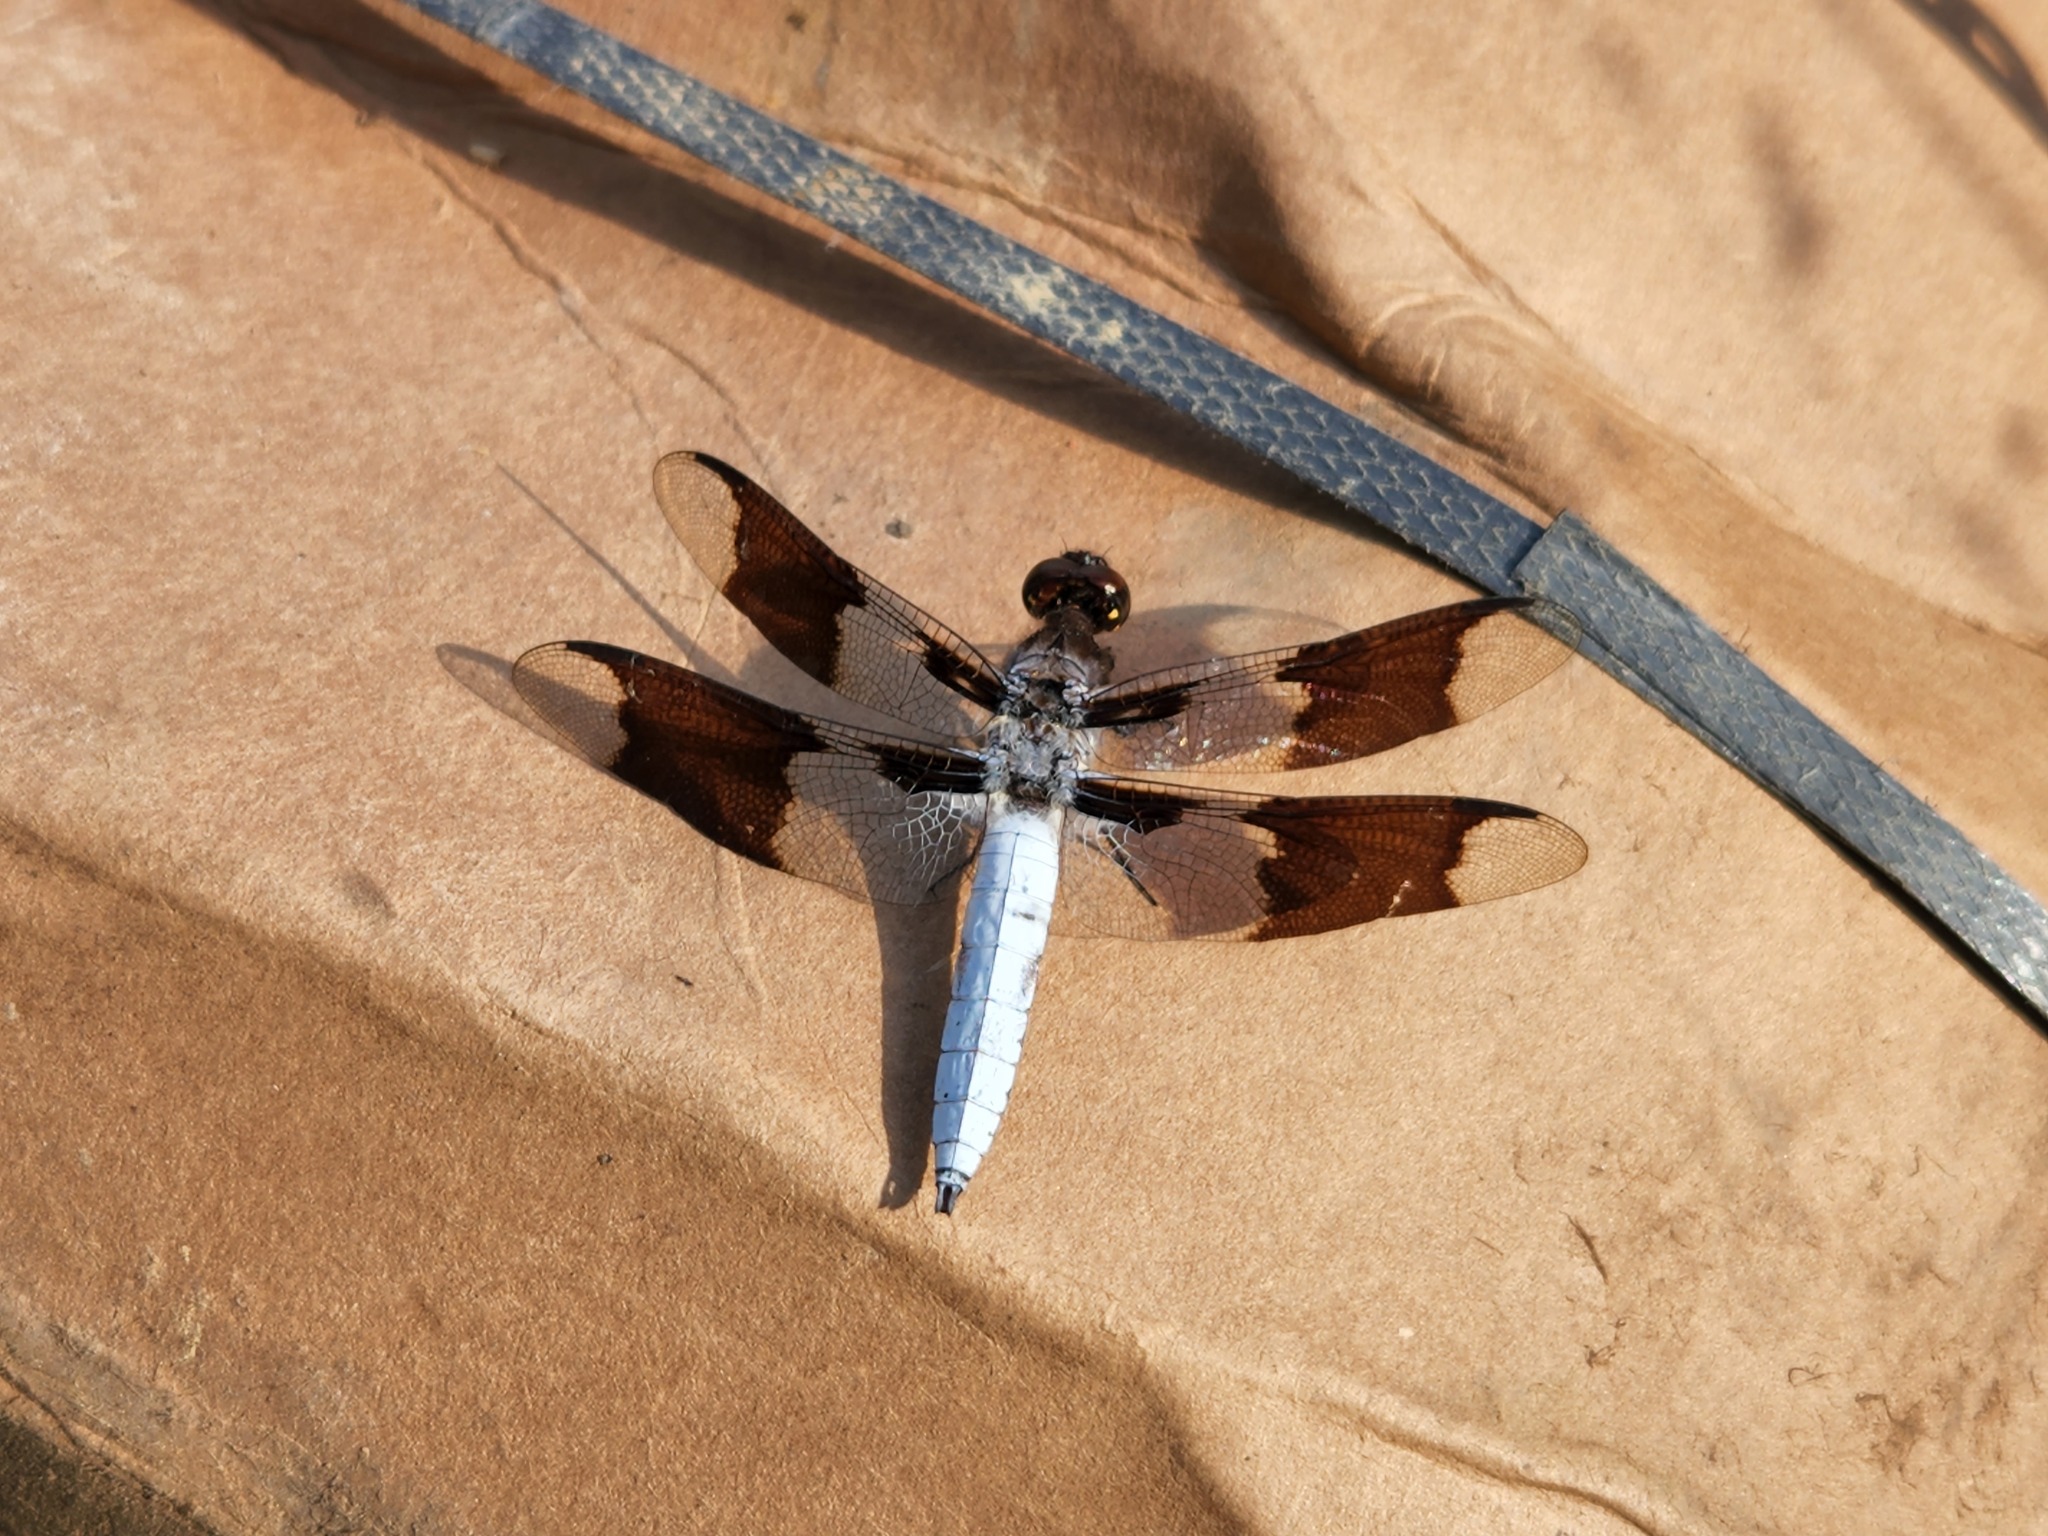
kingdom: Animalia
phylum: Arthropoda
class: Insecta
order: Odonata
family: Libellulidae
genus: Plathemis
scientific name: Plathemis lydia
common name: Common whitetail
